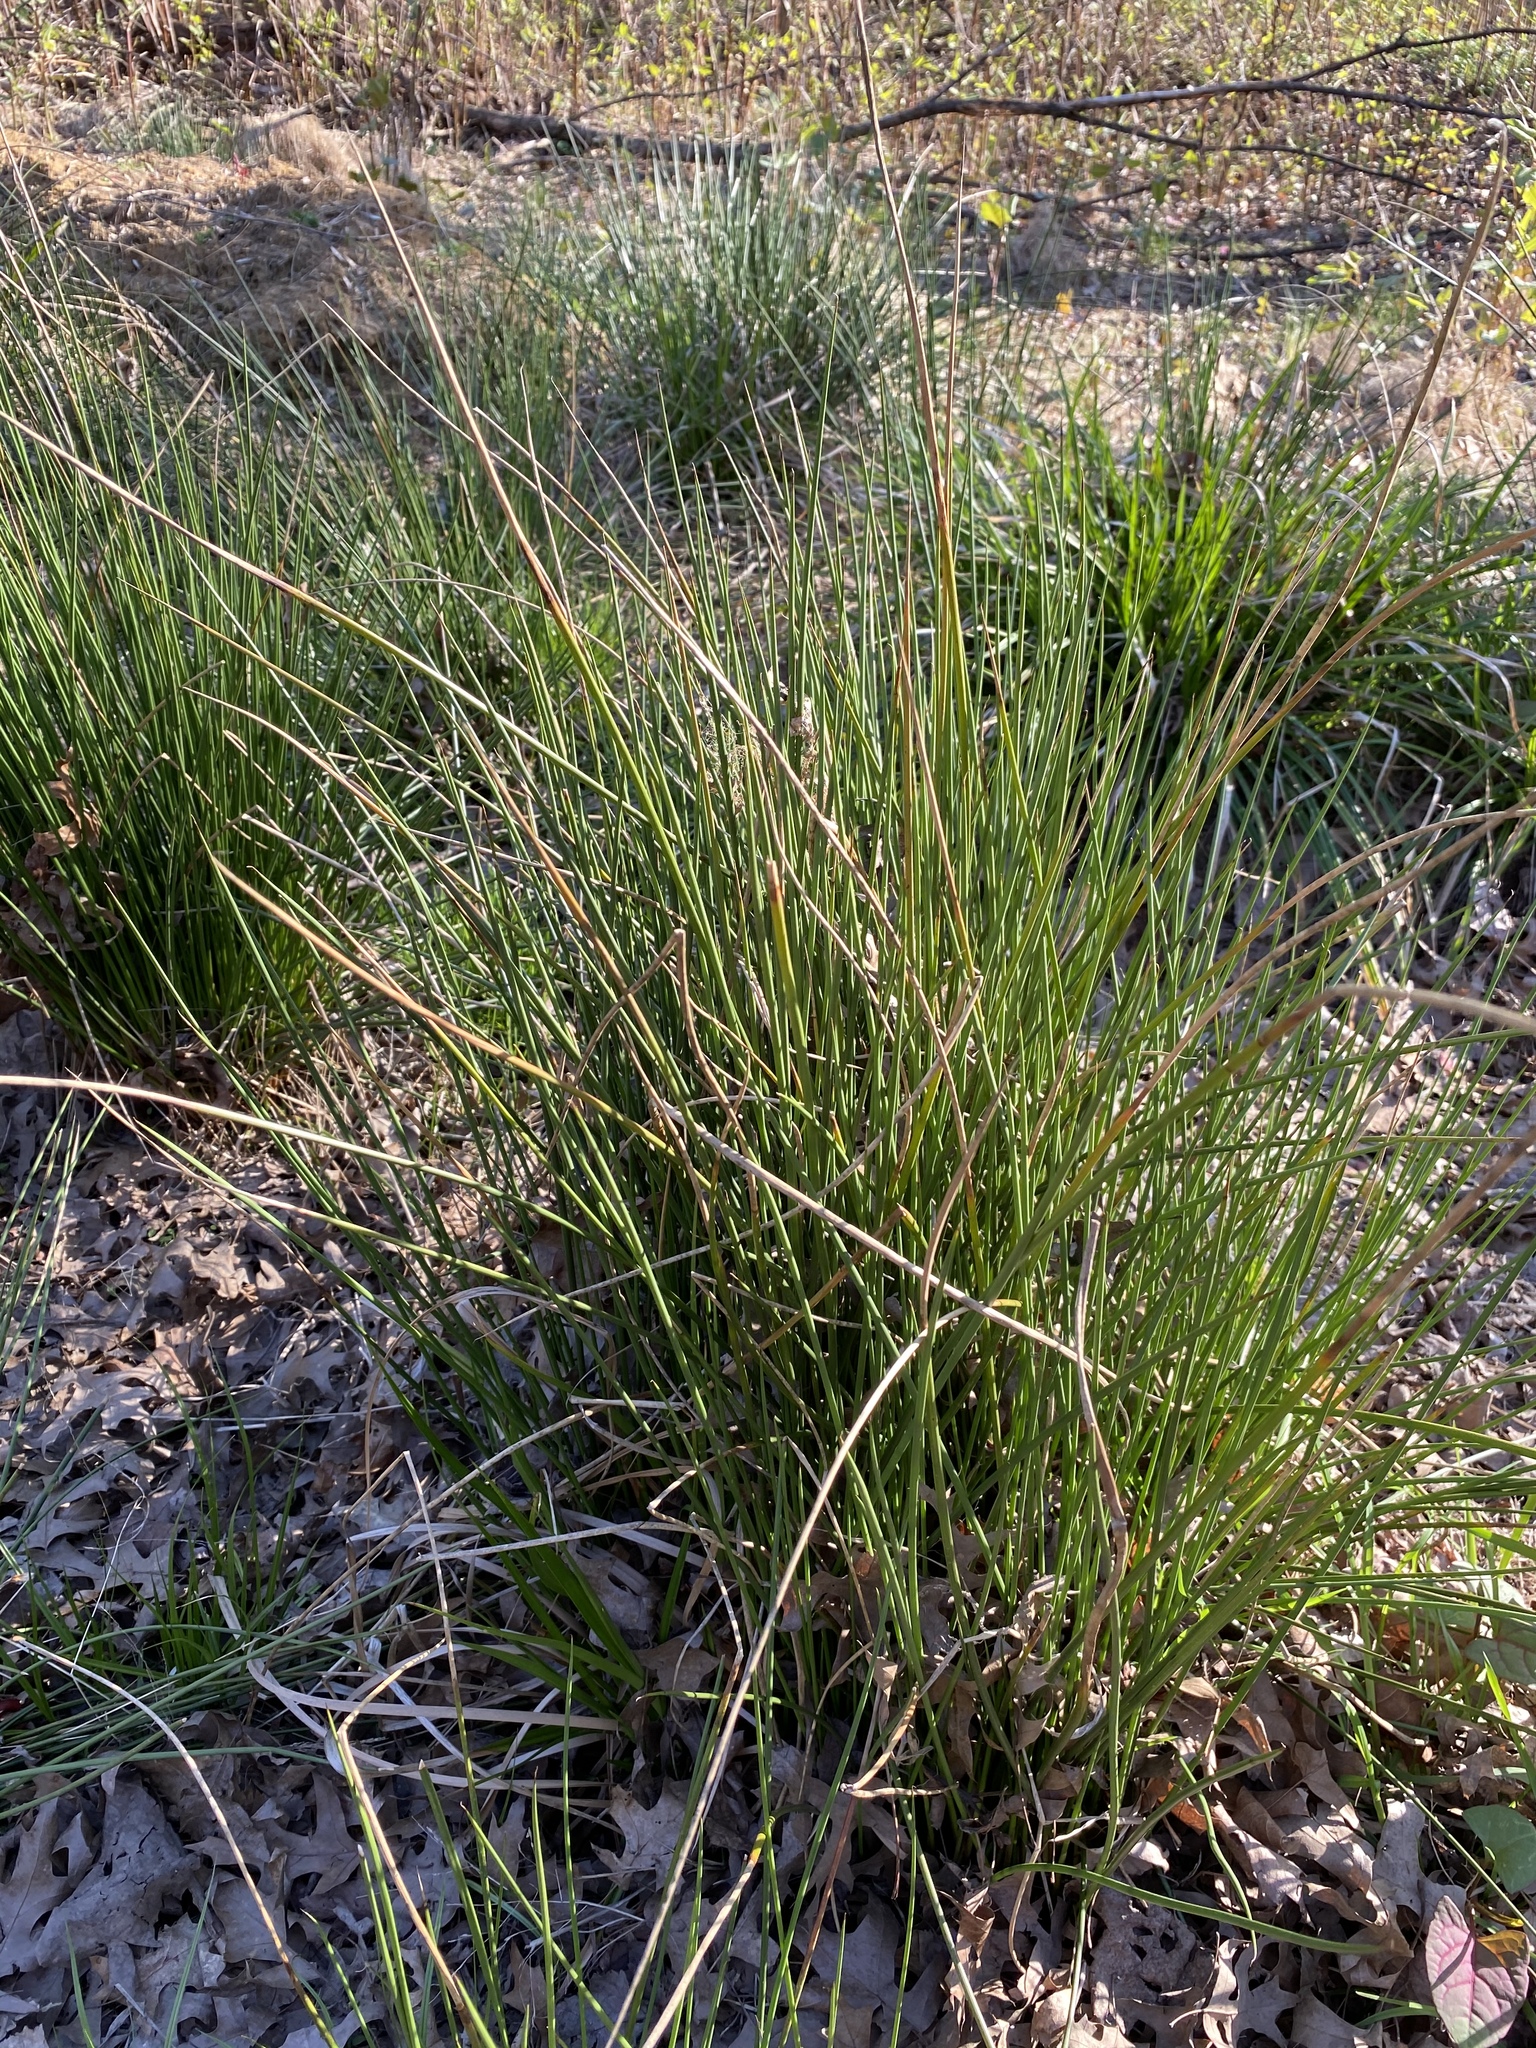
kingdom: Plantae
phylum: Tracheophyta
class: Liliopsida
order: Poales
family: Juncaceae
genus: Juncus
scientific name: Juncus effusus
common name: Soft rush
